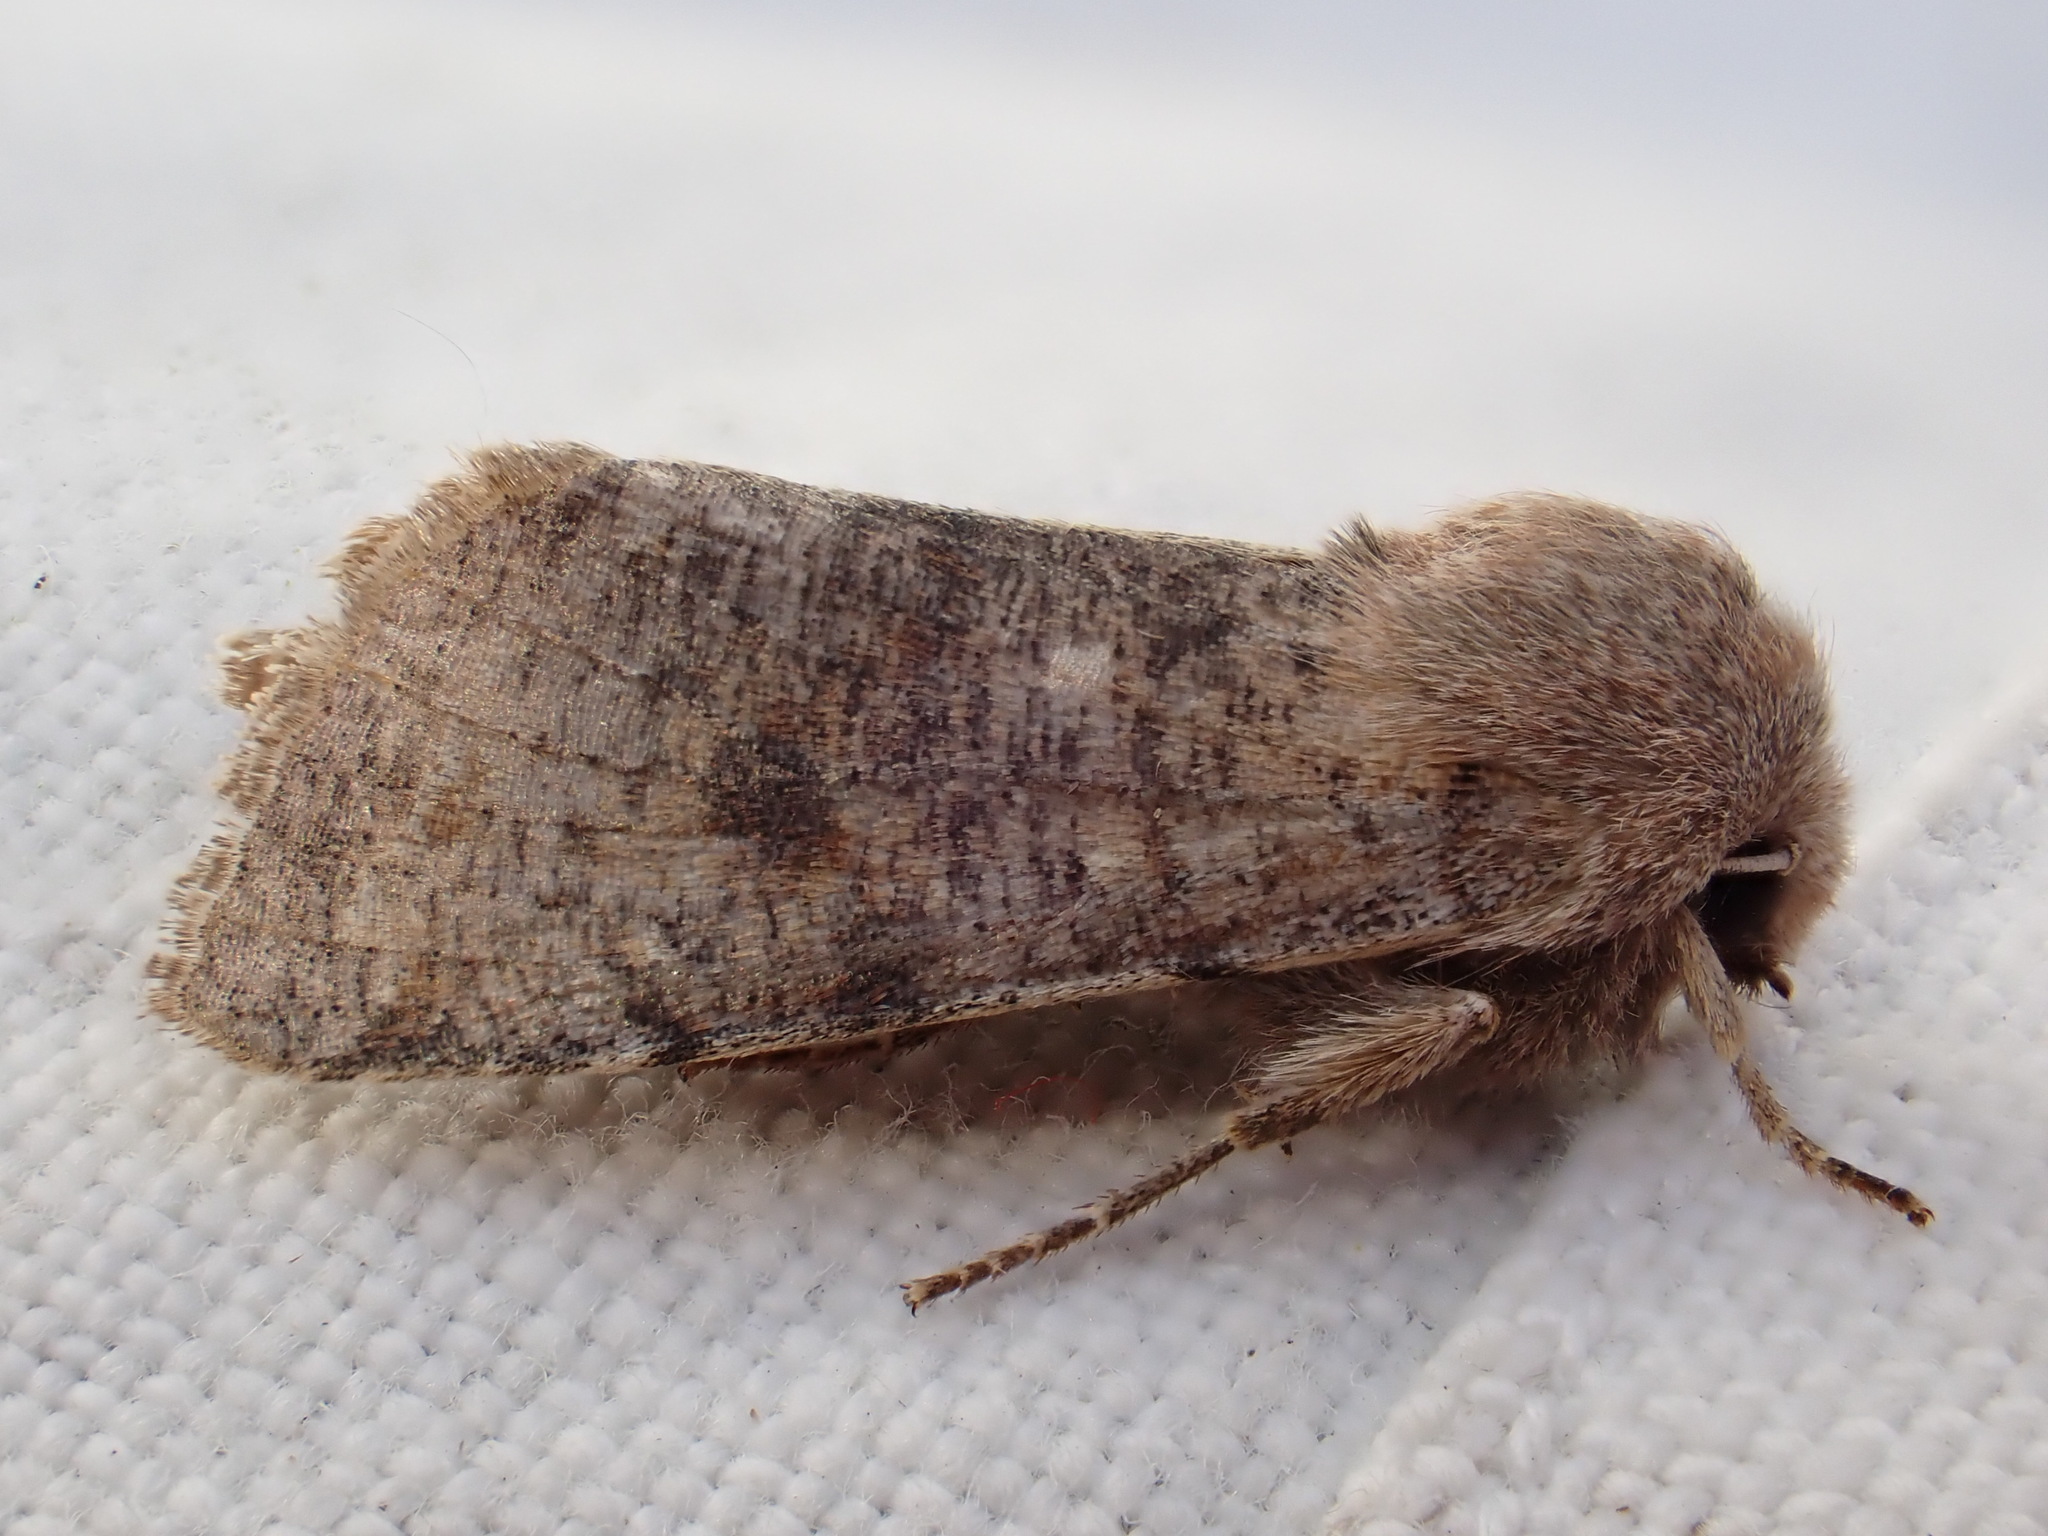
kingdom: Animalia
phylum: Arthropoda
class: Insecta
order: Lepidoptera
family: Noctuidae
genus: Orthosia
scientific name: Orthosia incerta
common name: Clouded drab
